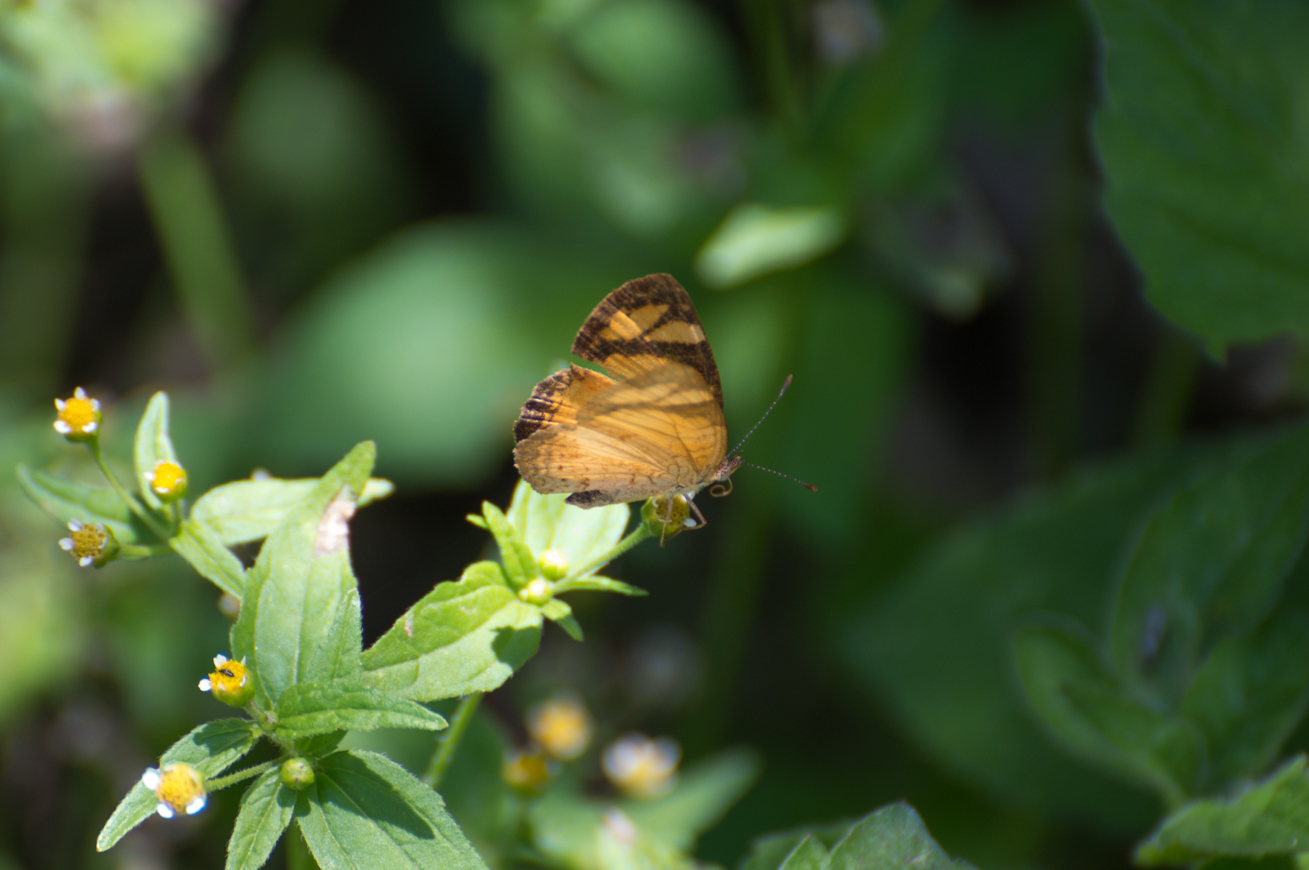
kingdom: Animalia
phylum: Arthropoda
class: Insecta
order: Lepidoptera
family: Nymphalidae
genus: Tegosa
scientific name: Tegosa claudina
